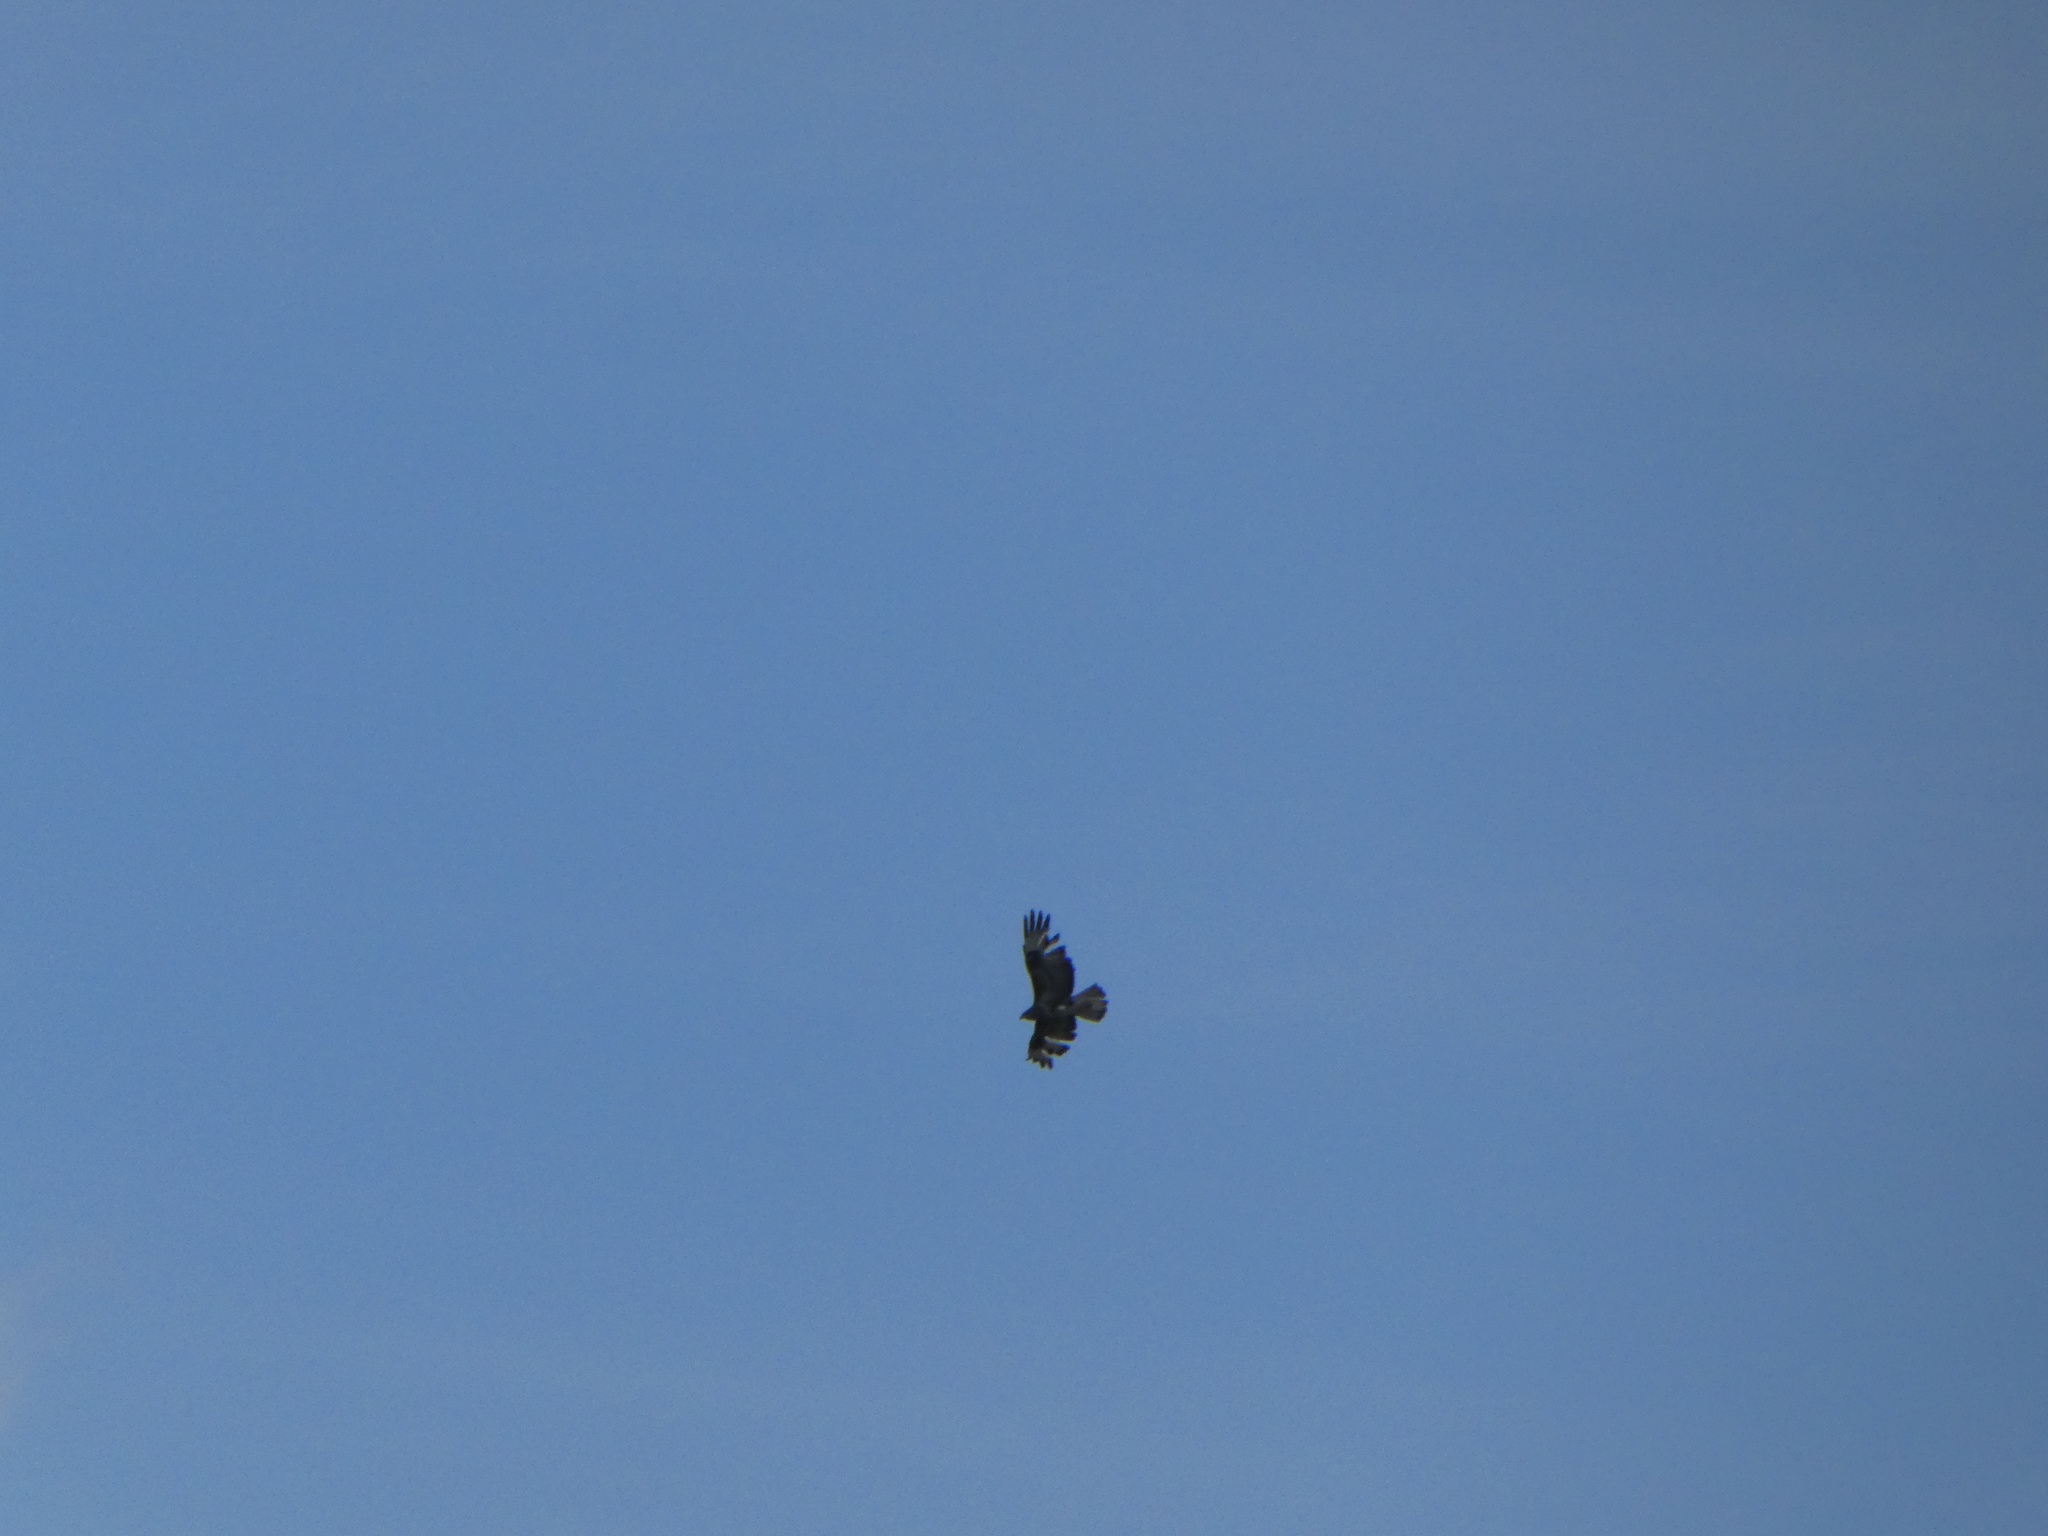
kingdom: Animalia
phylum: Chordata
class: Aves
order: Accipitriformes
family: Accipitridae
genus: Buteo
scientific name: Buteo buteo
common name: Common buzzard
